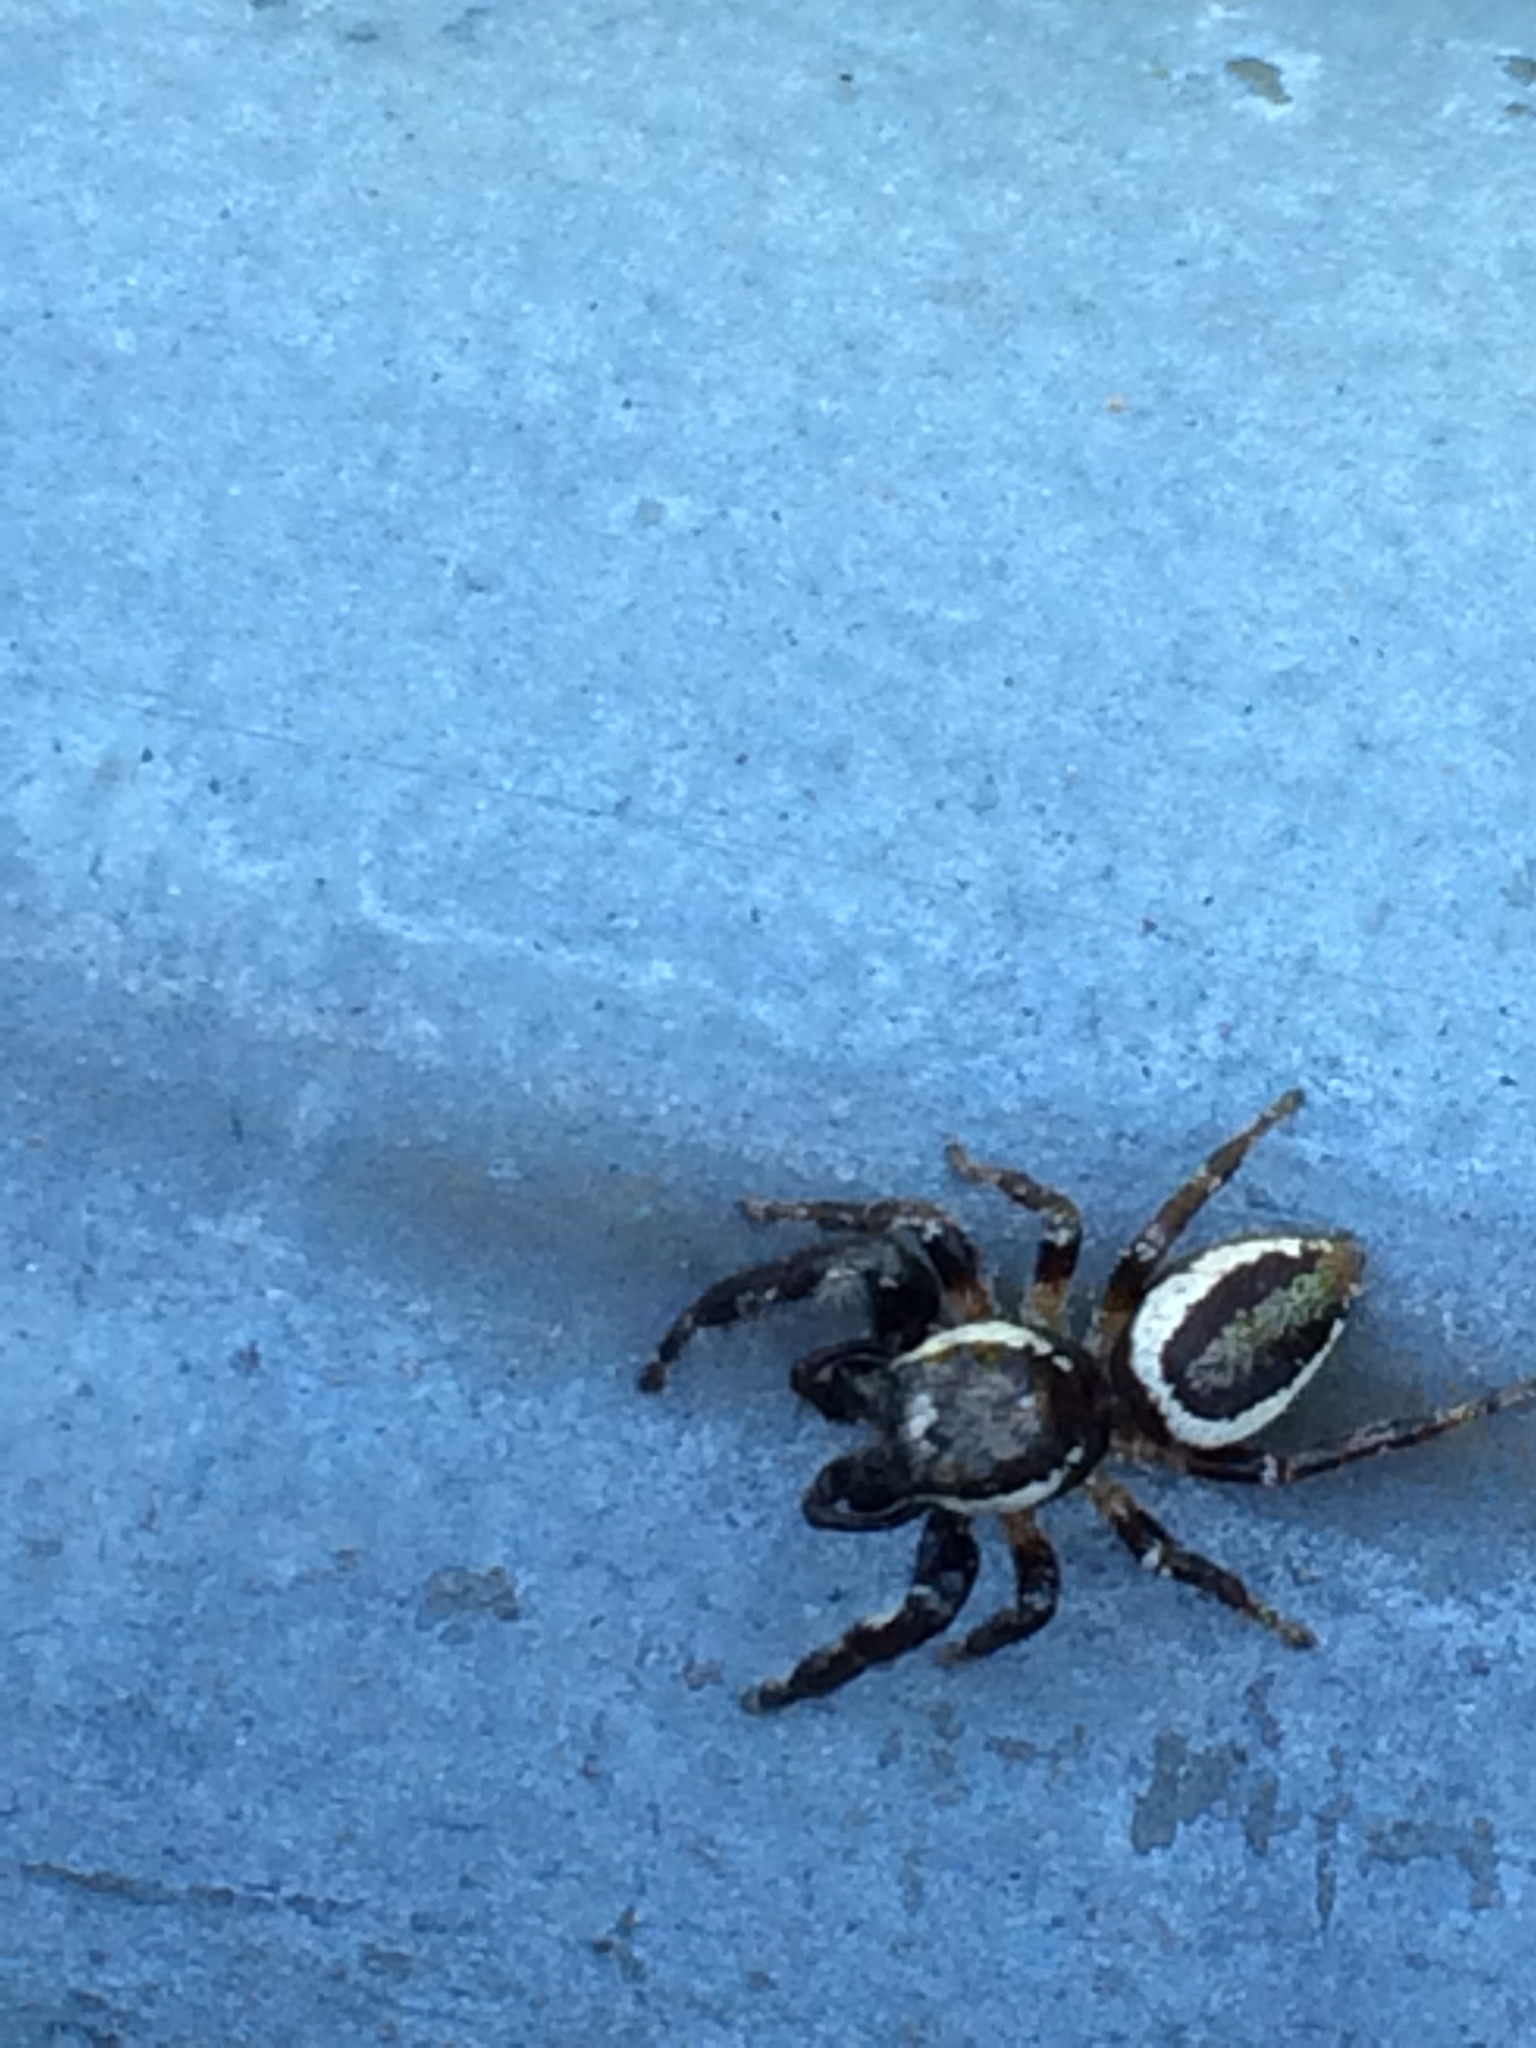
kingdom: Animalia
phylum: Arthropoda
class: Arachnida
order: Araneae
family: Salticidae
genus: Eris
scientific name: Eris militaris
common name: Bronze jumper
